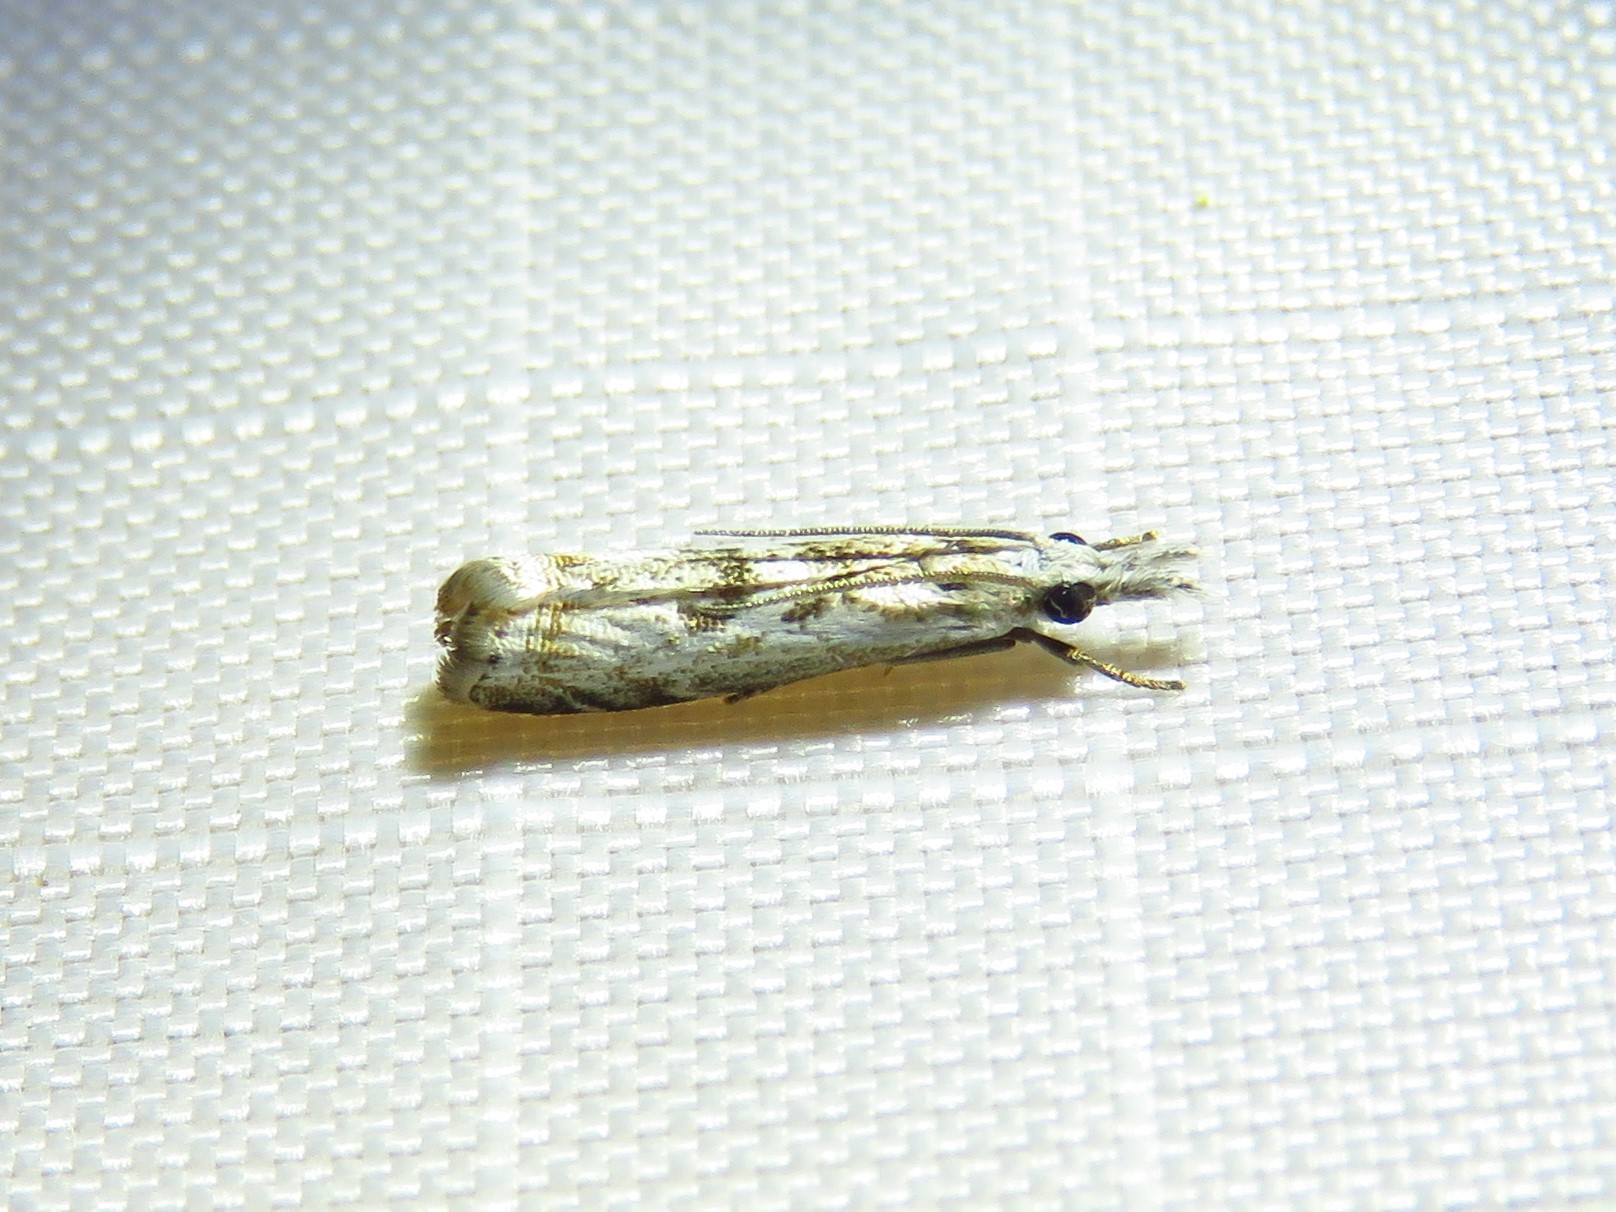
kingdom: Animalia
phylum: Arthropoda
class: Insecta
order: Lepidoptera
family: Crambidae
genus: Microcrambus
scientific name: Microcrambus elegans
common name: Elegant grass-veneer
